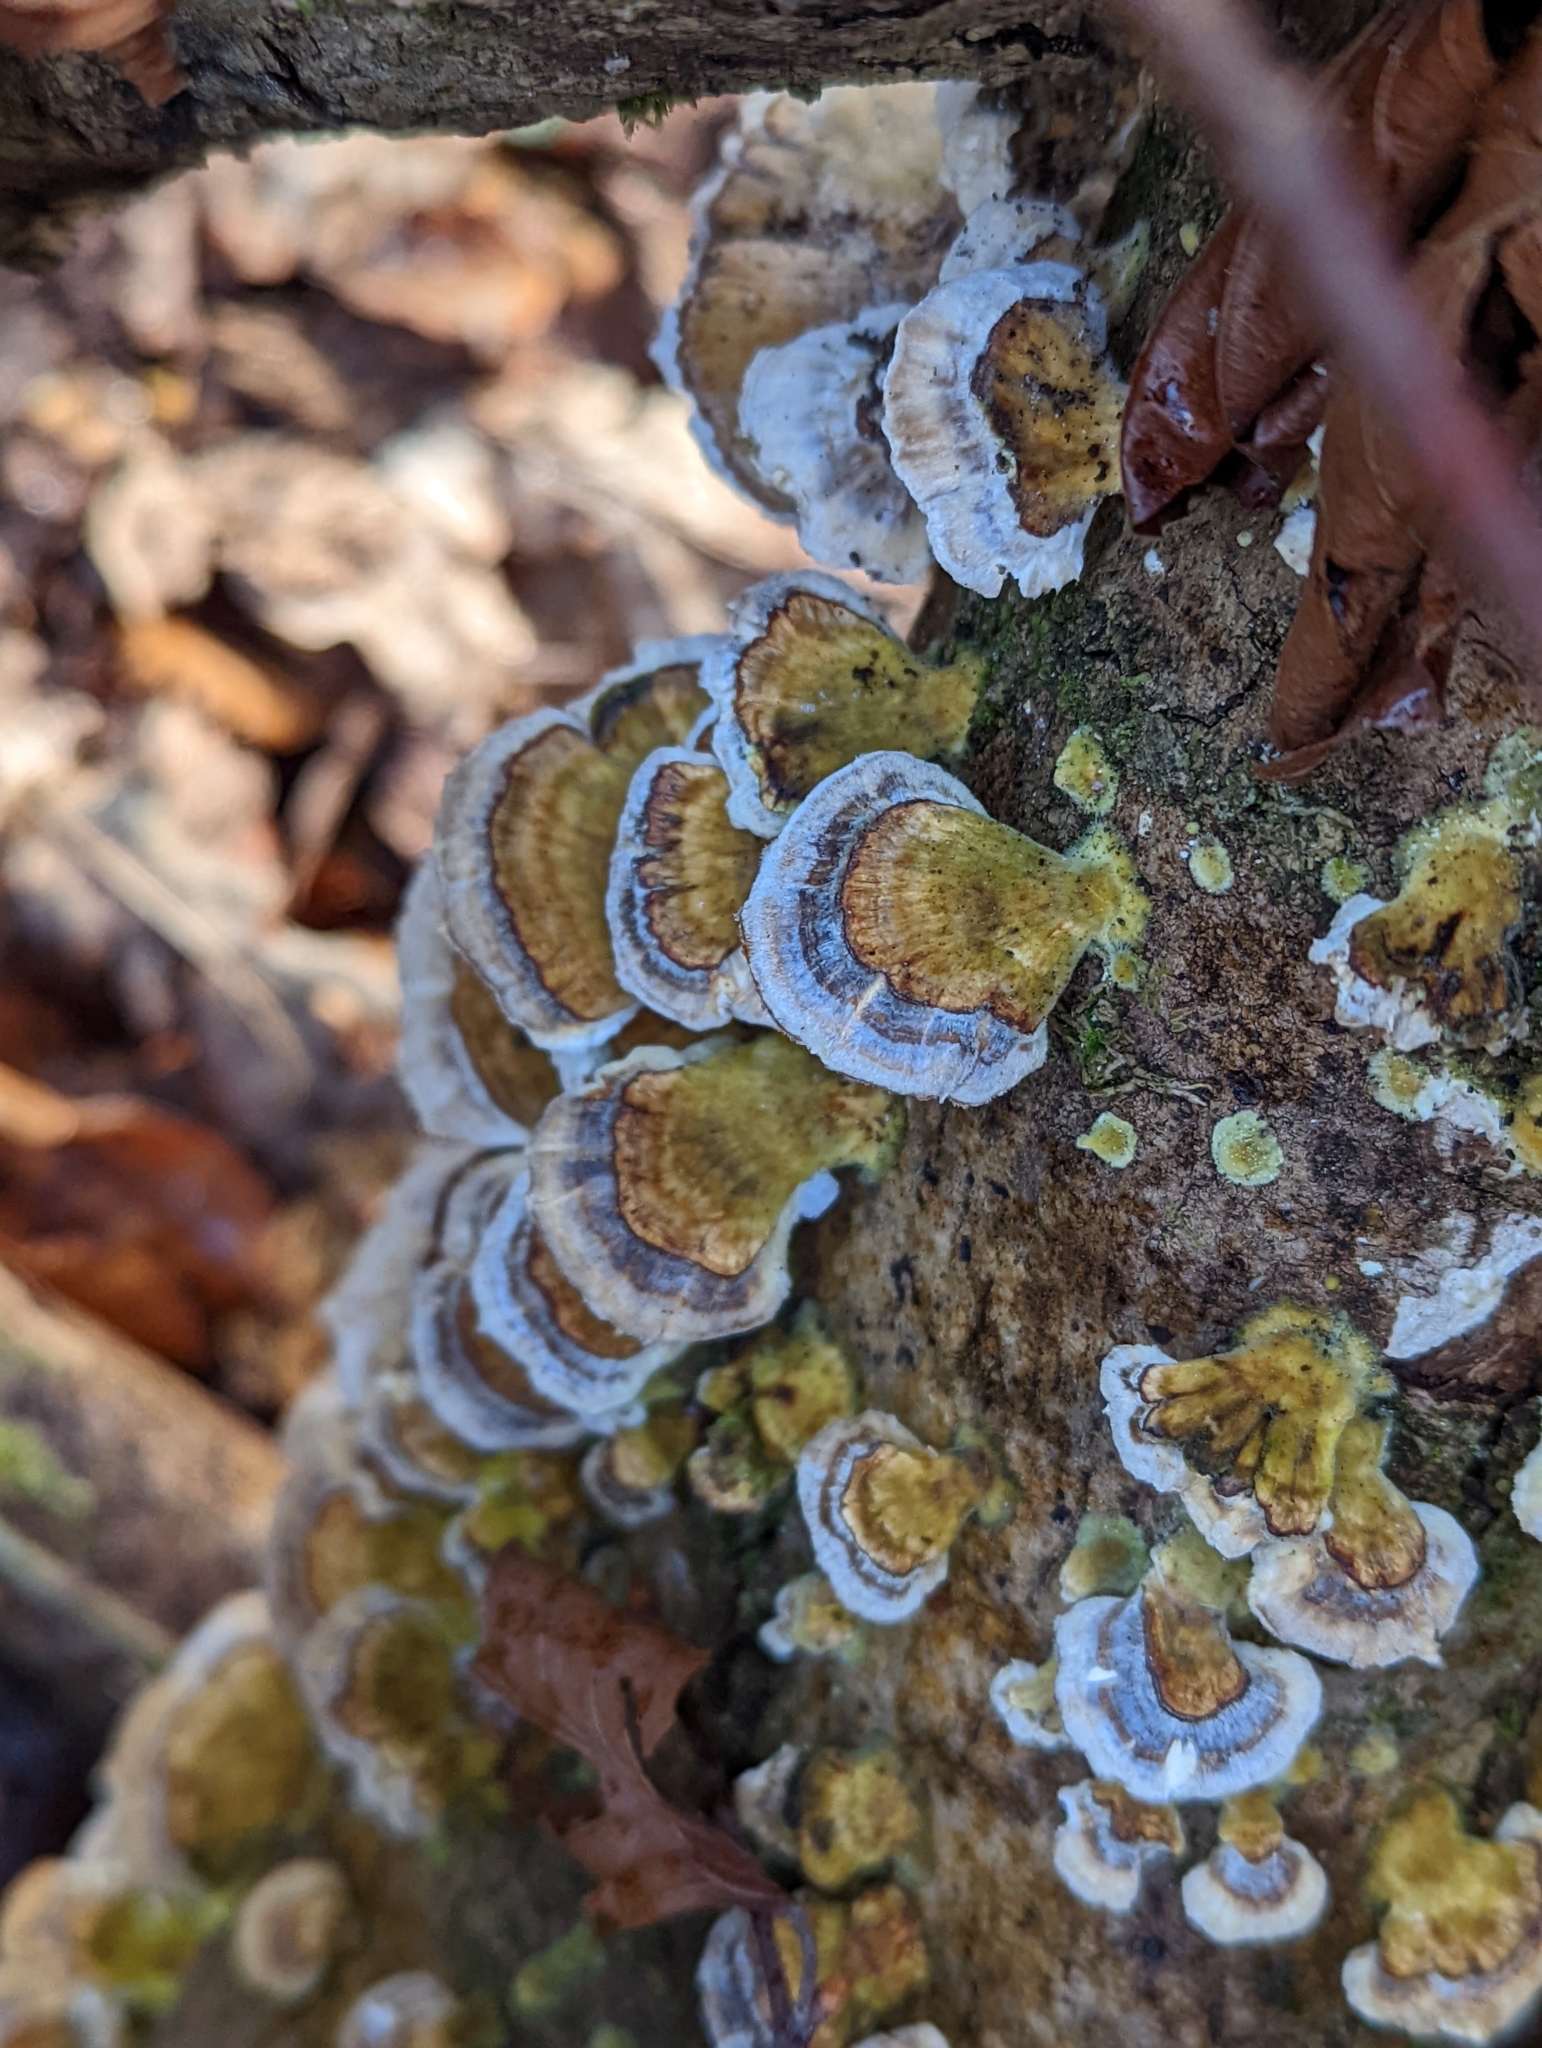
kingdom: Fungi
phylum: Basidiomycota
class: Agaricomycetes
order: Polyporales
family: Polyporaceae
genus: Trametes
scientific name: Trametes versicolor
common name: Turkeytail
